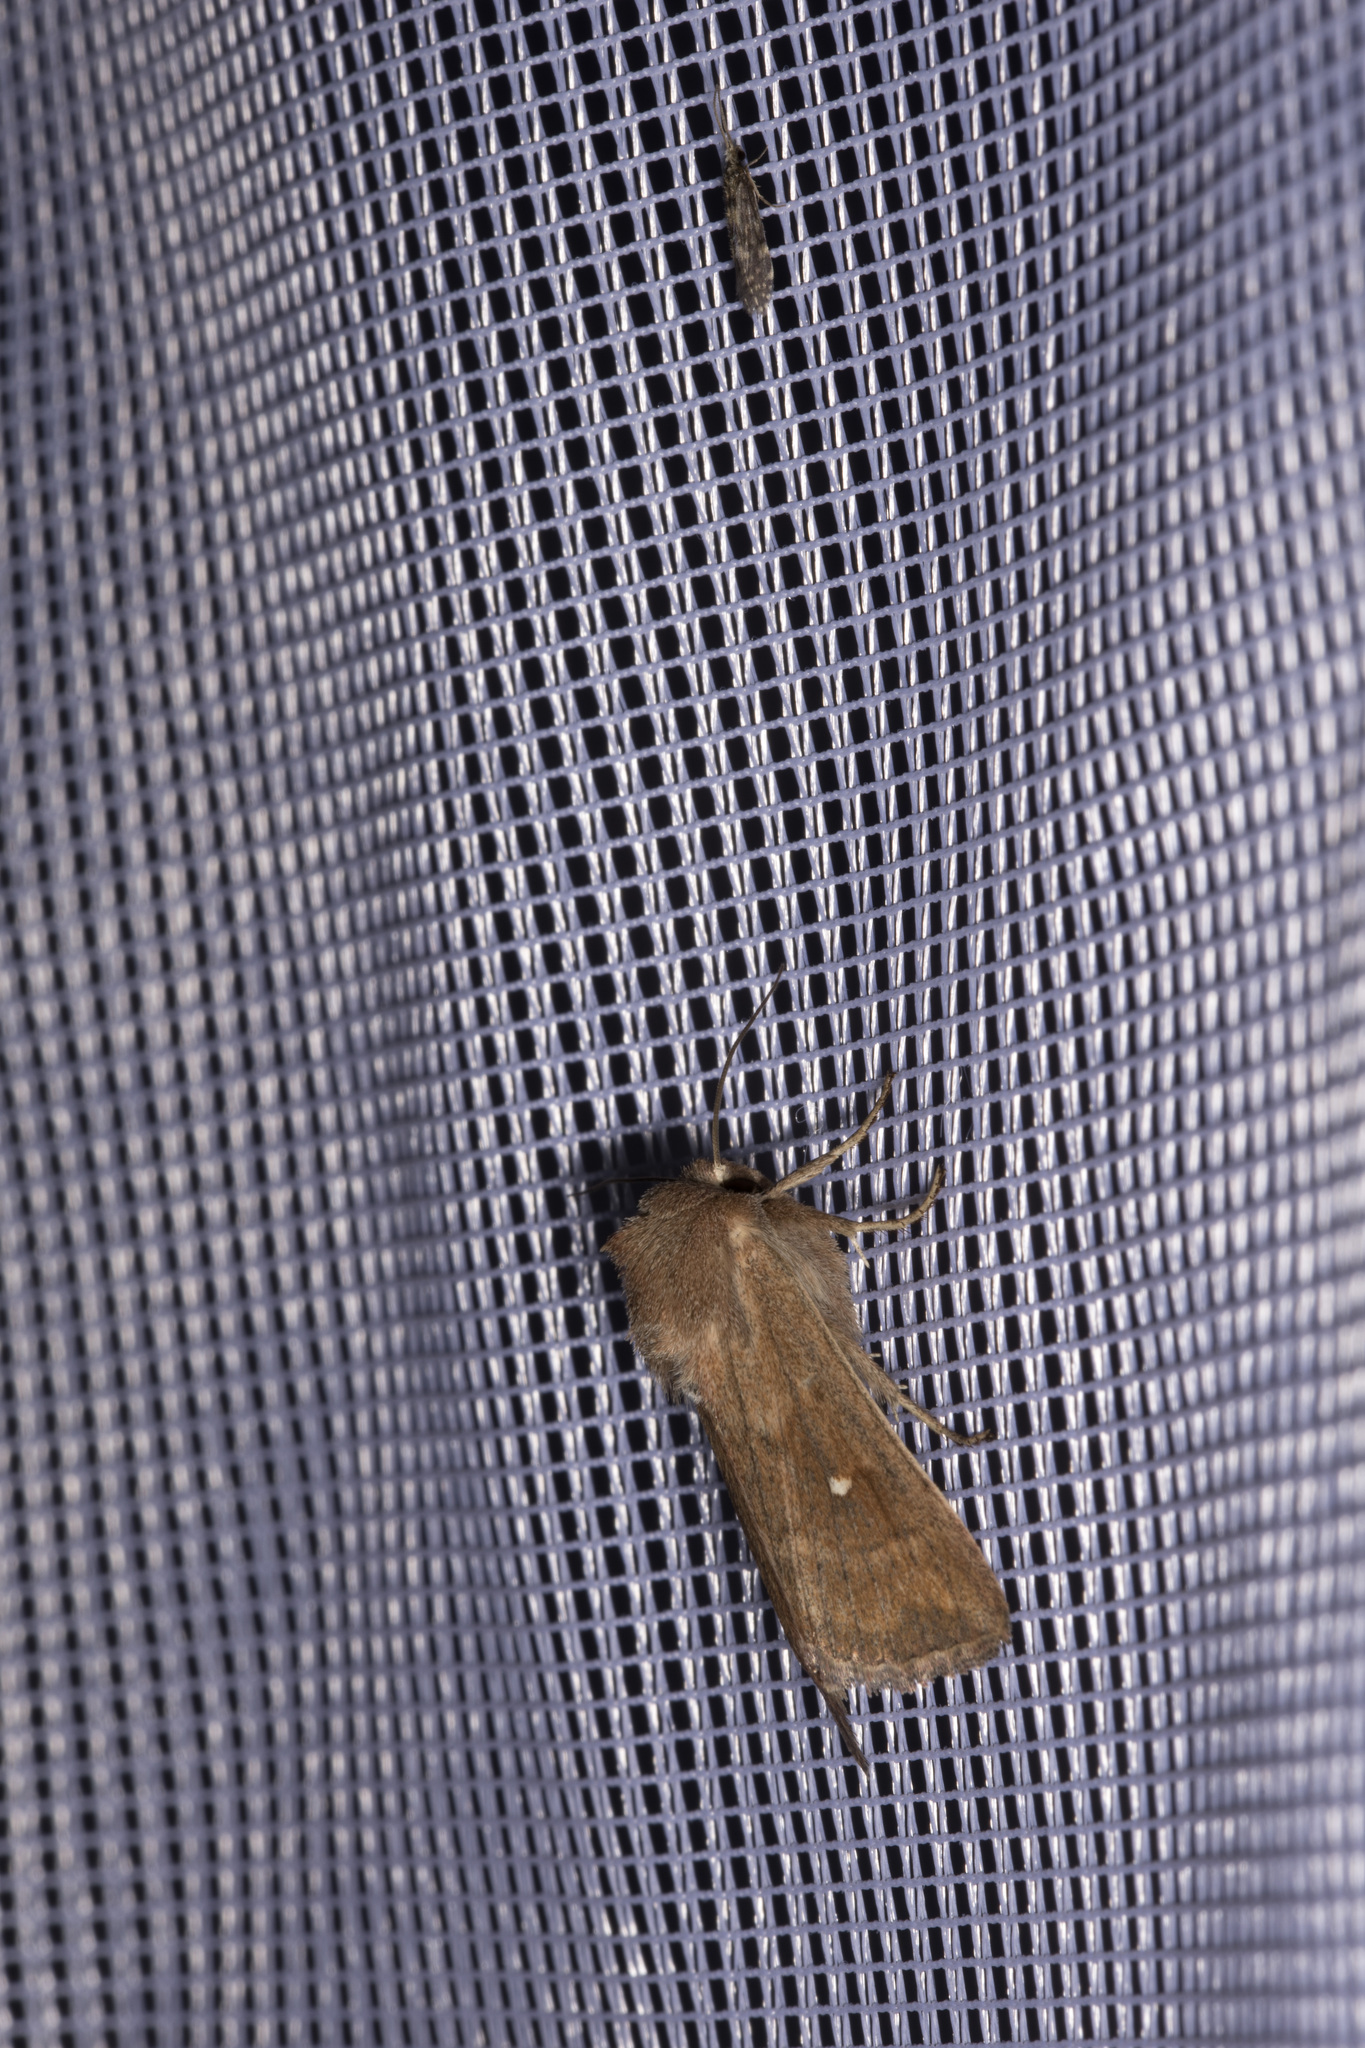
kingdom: Animalia
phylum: Arthropoda
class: Insecta
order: Lepidoptera
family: Noctuidae
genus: Mythimna
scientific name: Mythimna albipuncta
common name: White-point
